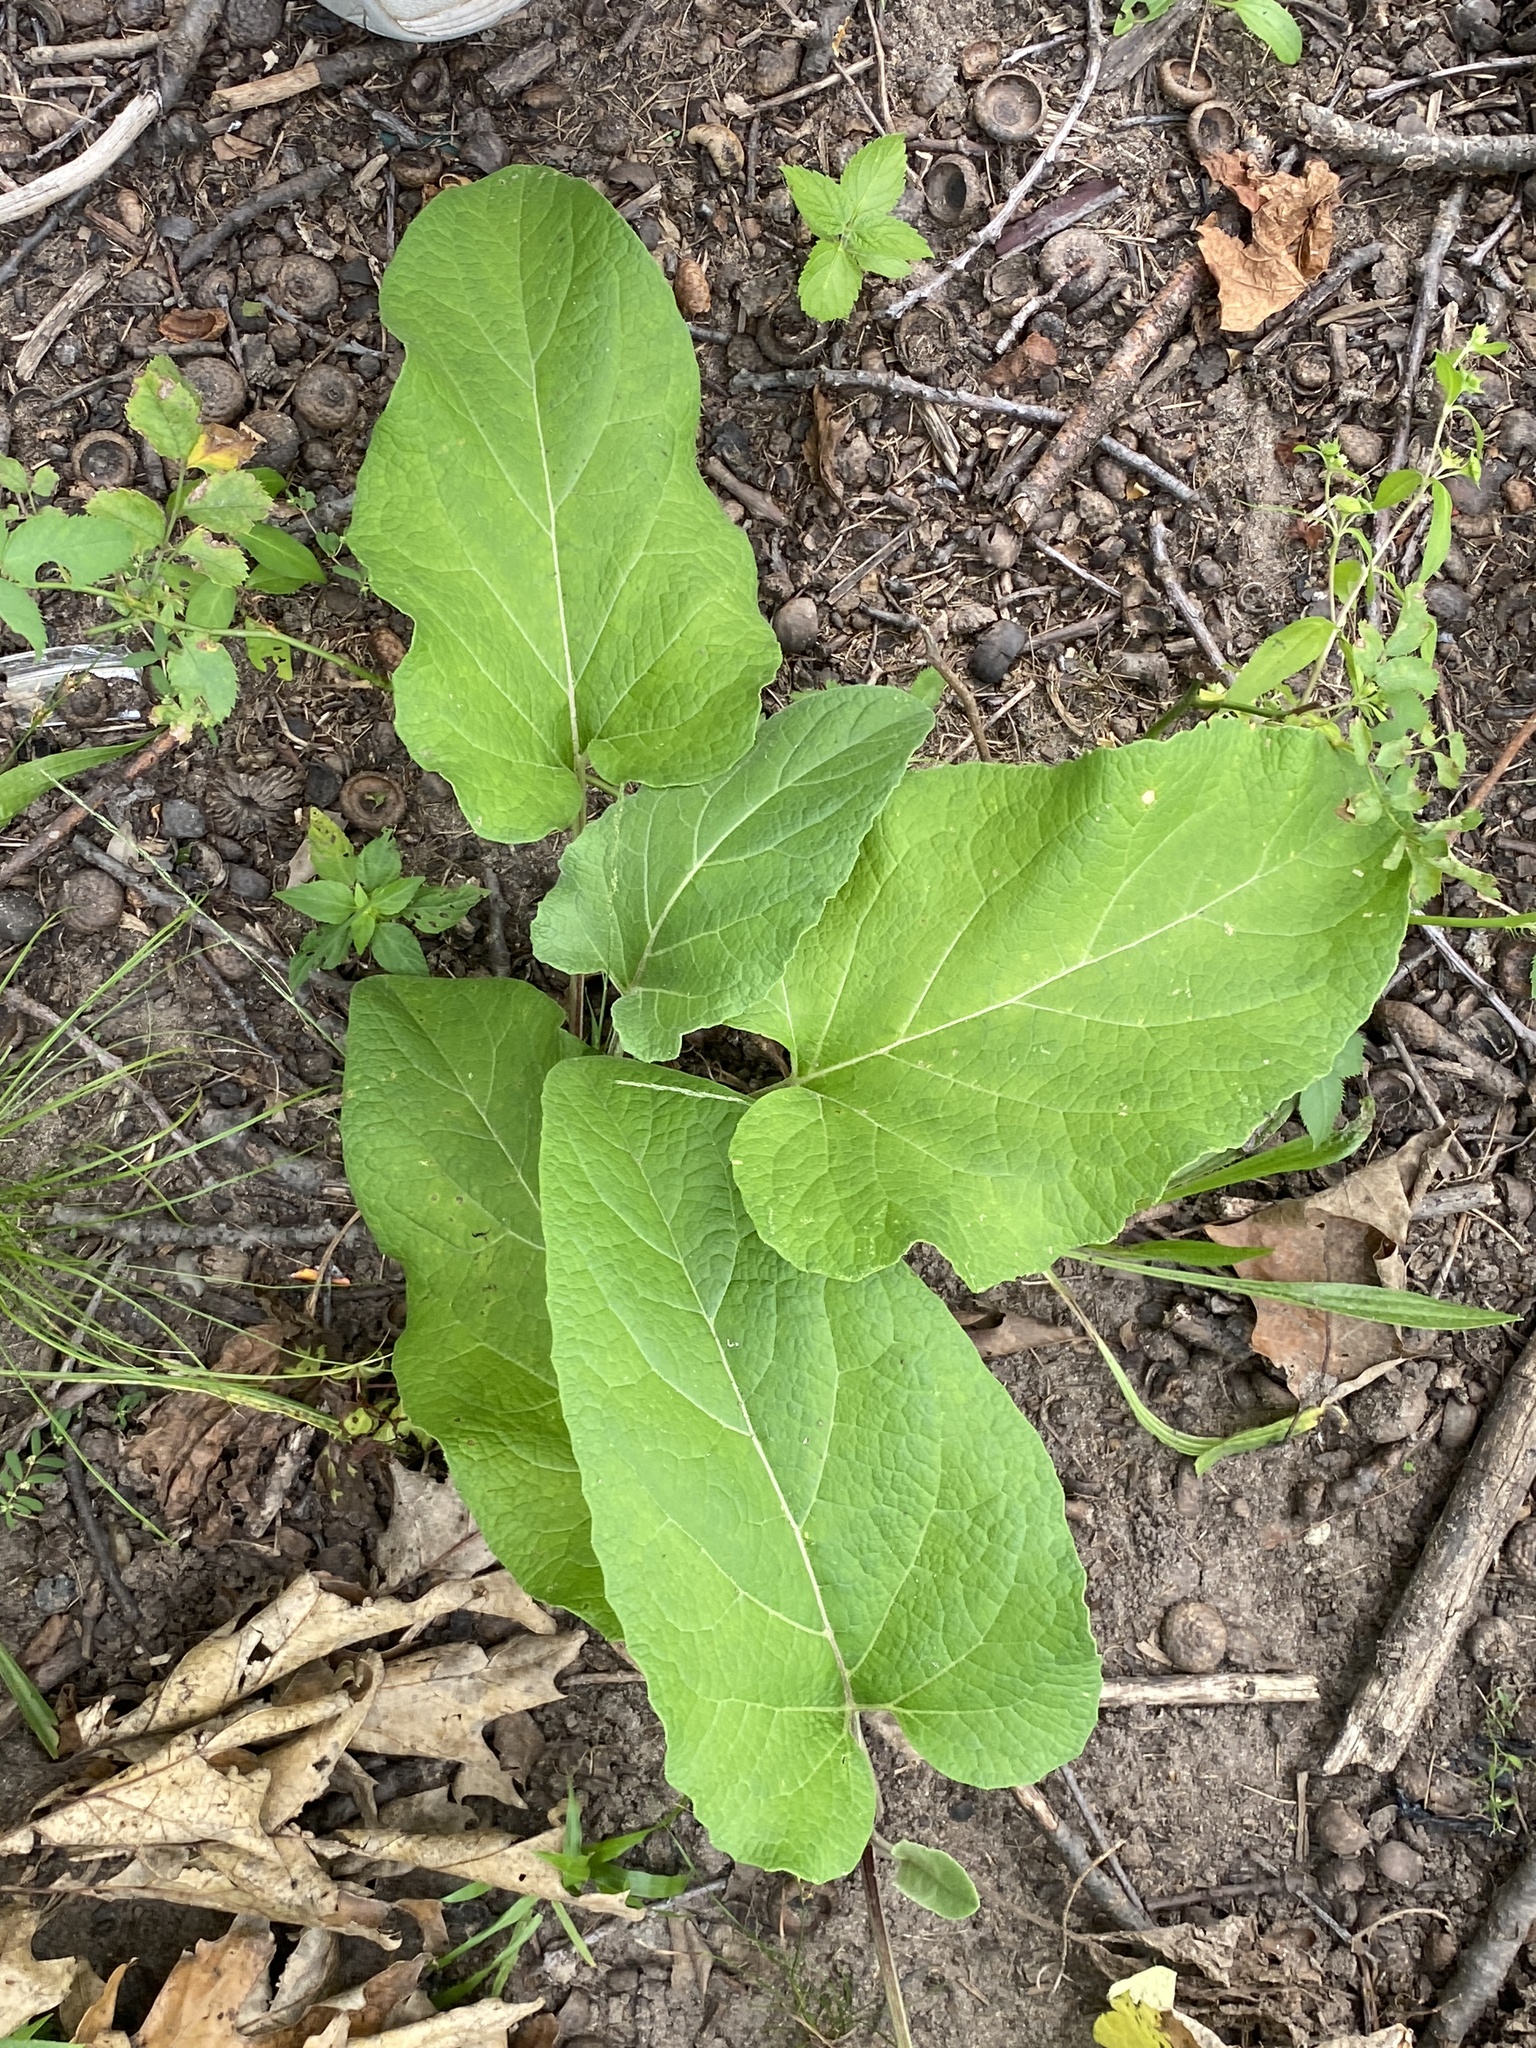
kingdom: Plantae
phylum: Tracheophyta
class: Magnoliopsida
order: Asterales
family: Asteraceae
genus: Arctium
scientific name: Arctium
